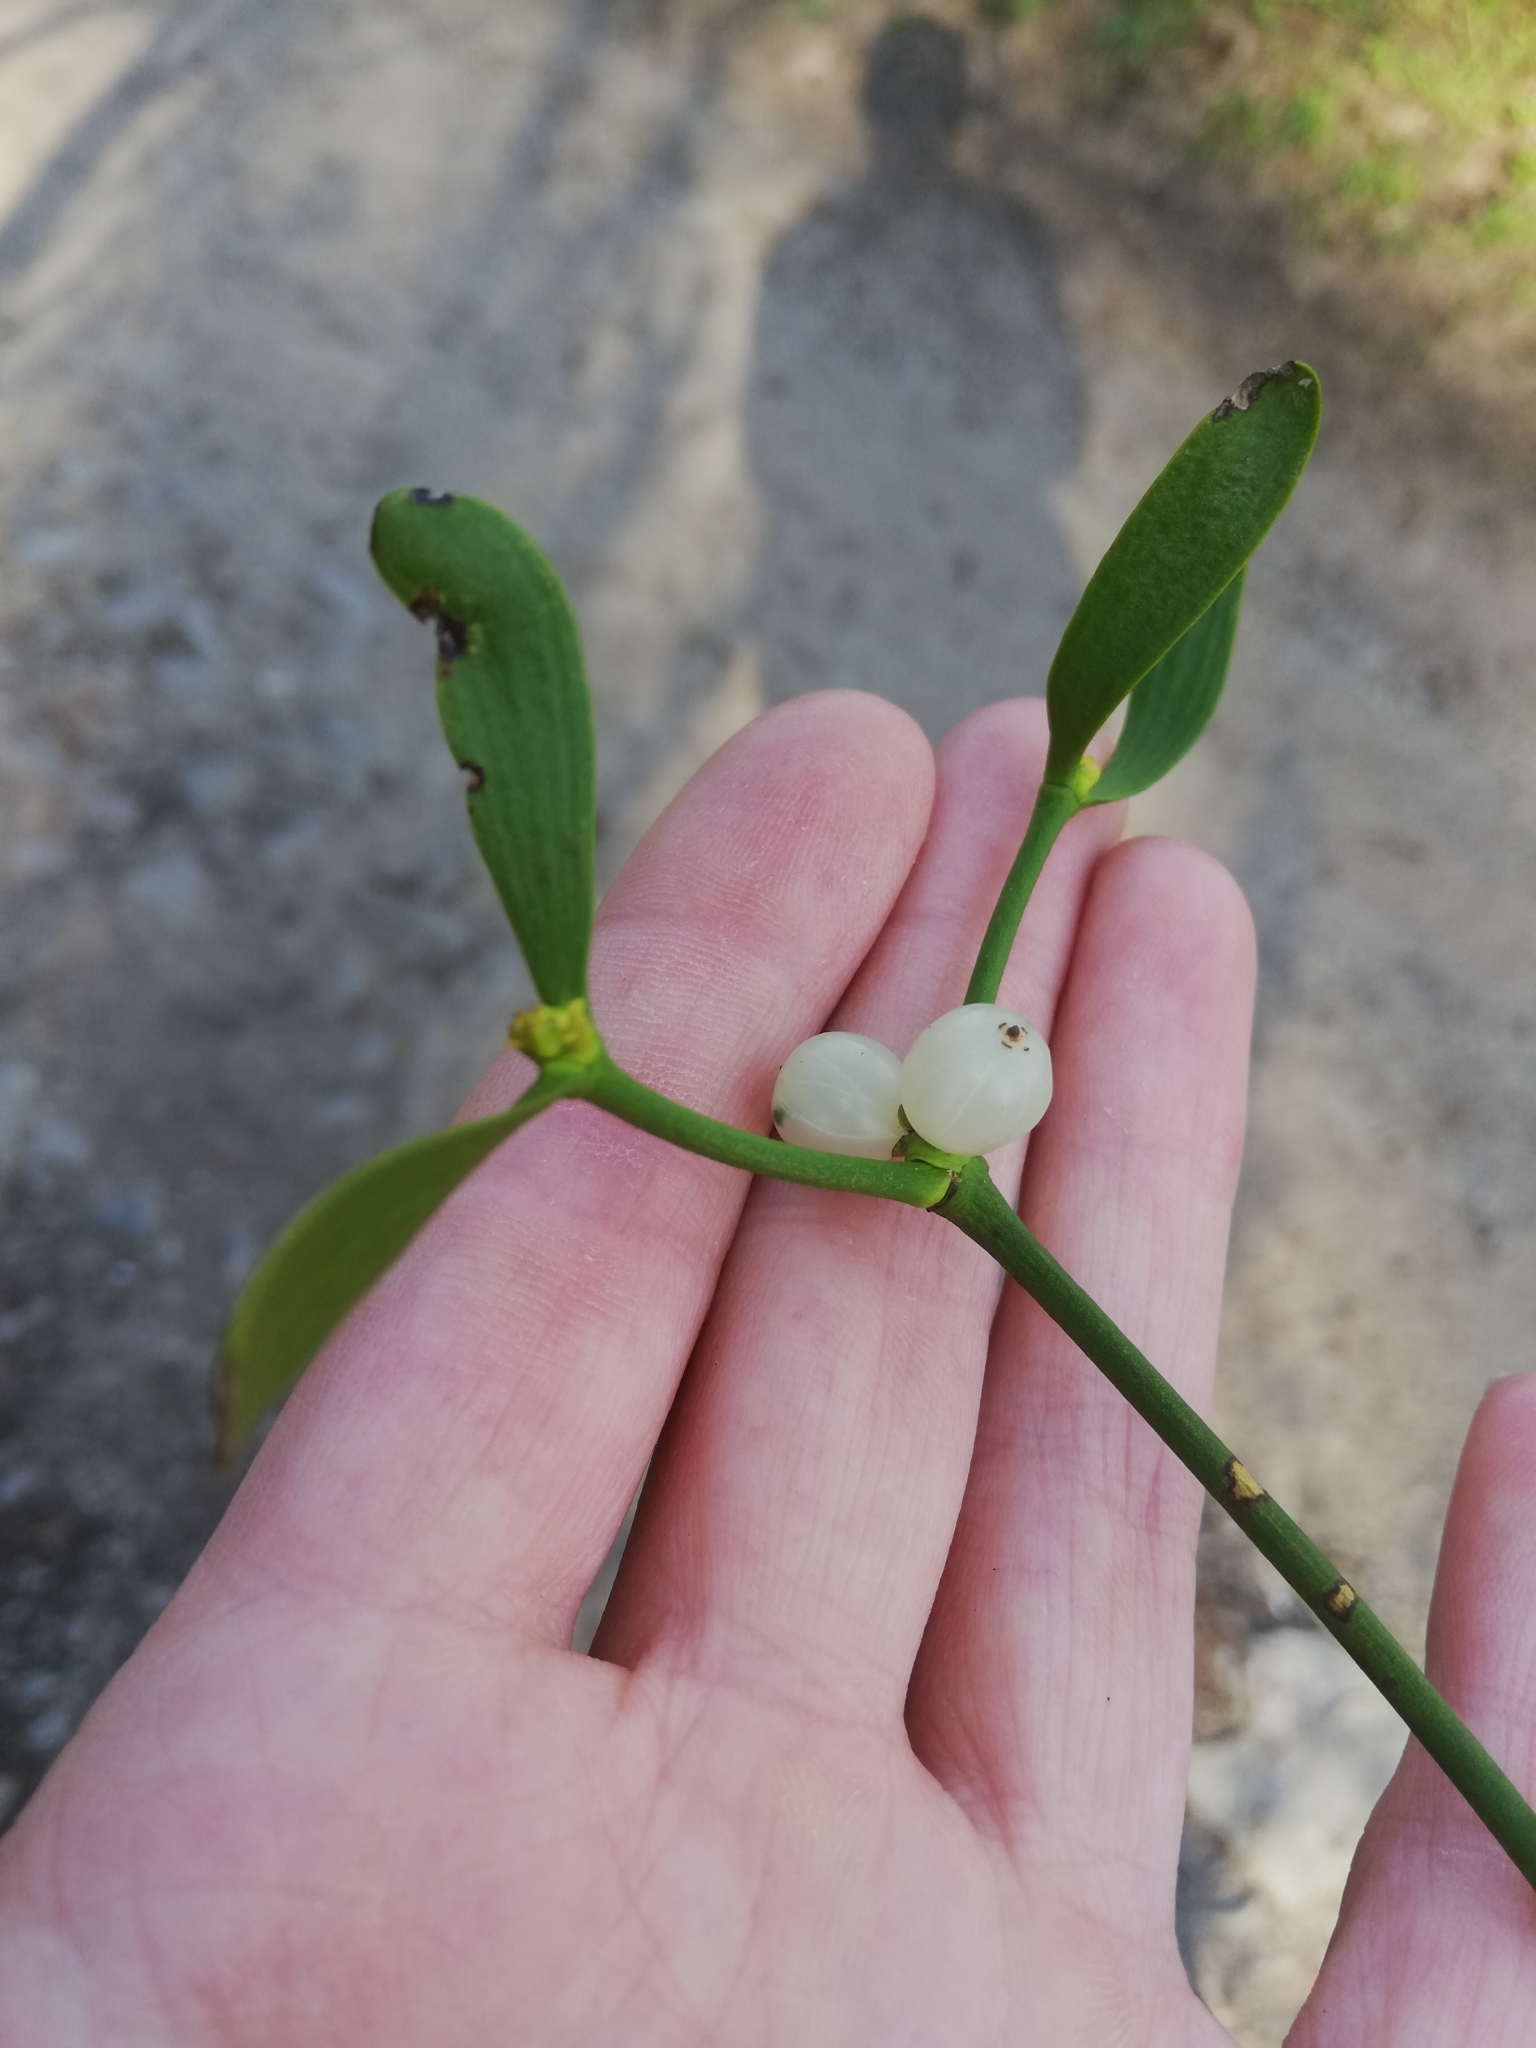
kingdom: Plantae
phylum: Tracheophyta
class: Magnoliopsida
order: Santalales
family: Viscaceae
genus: Viscum
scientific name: Viscum album
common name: Mistletoe
